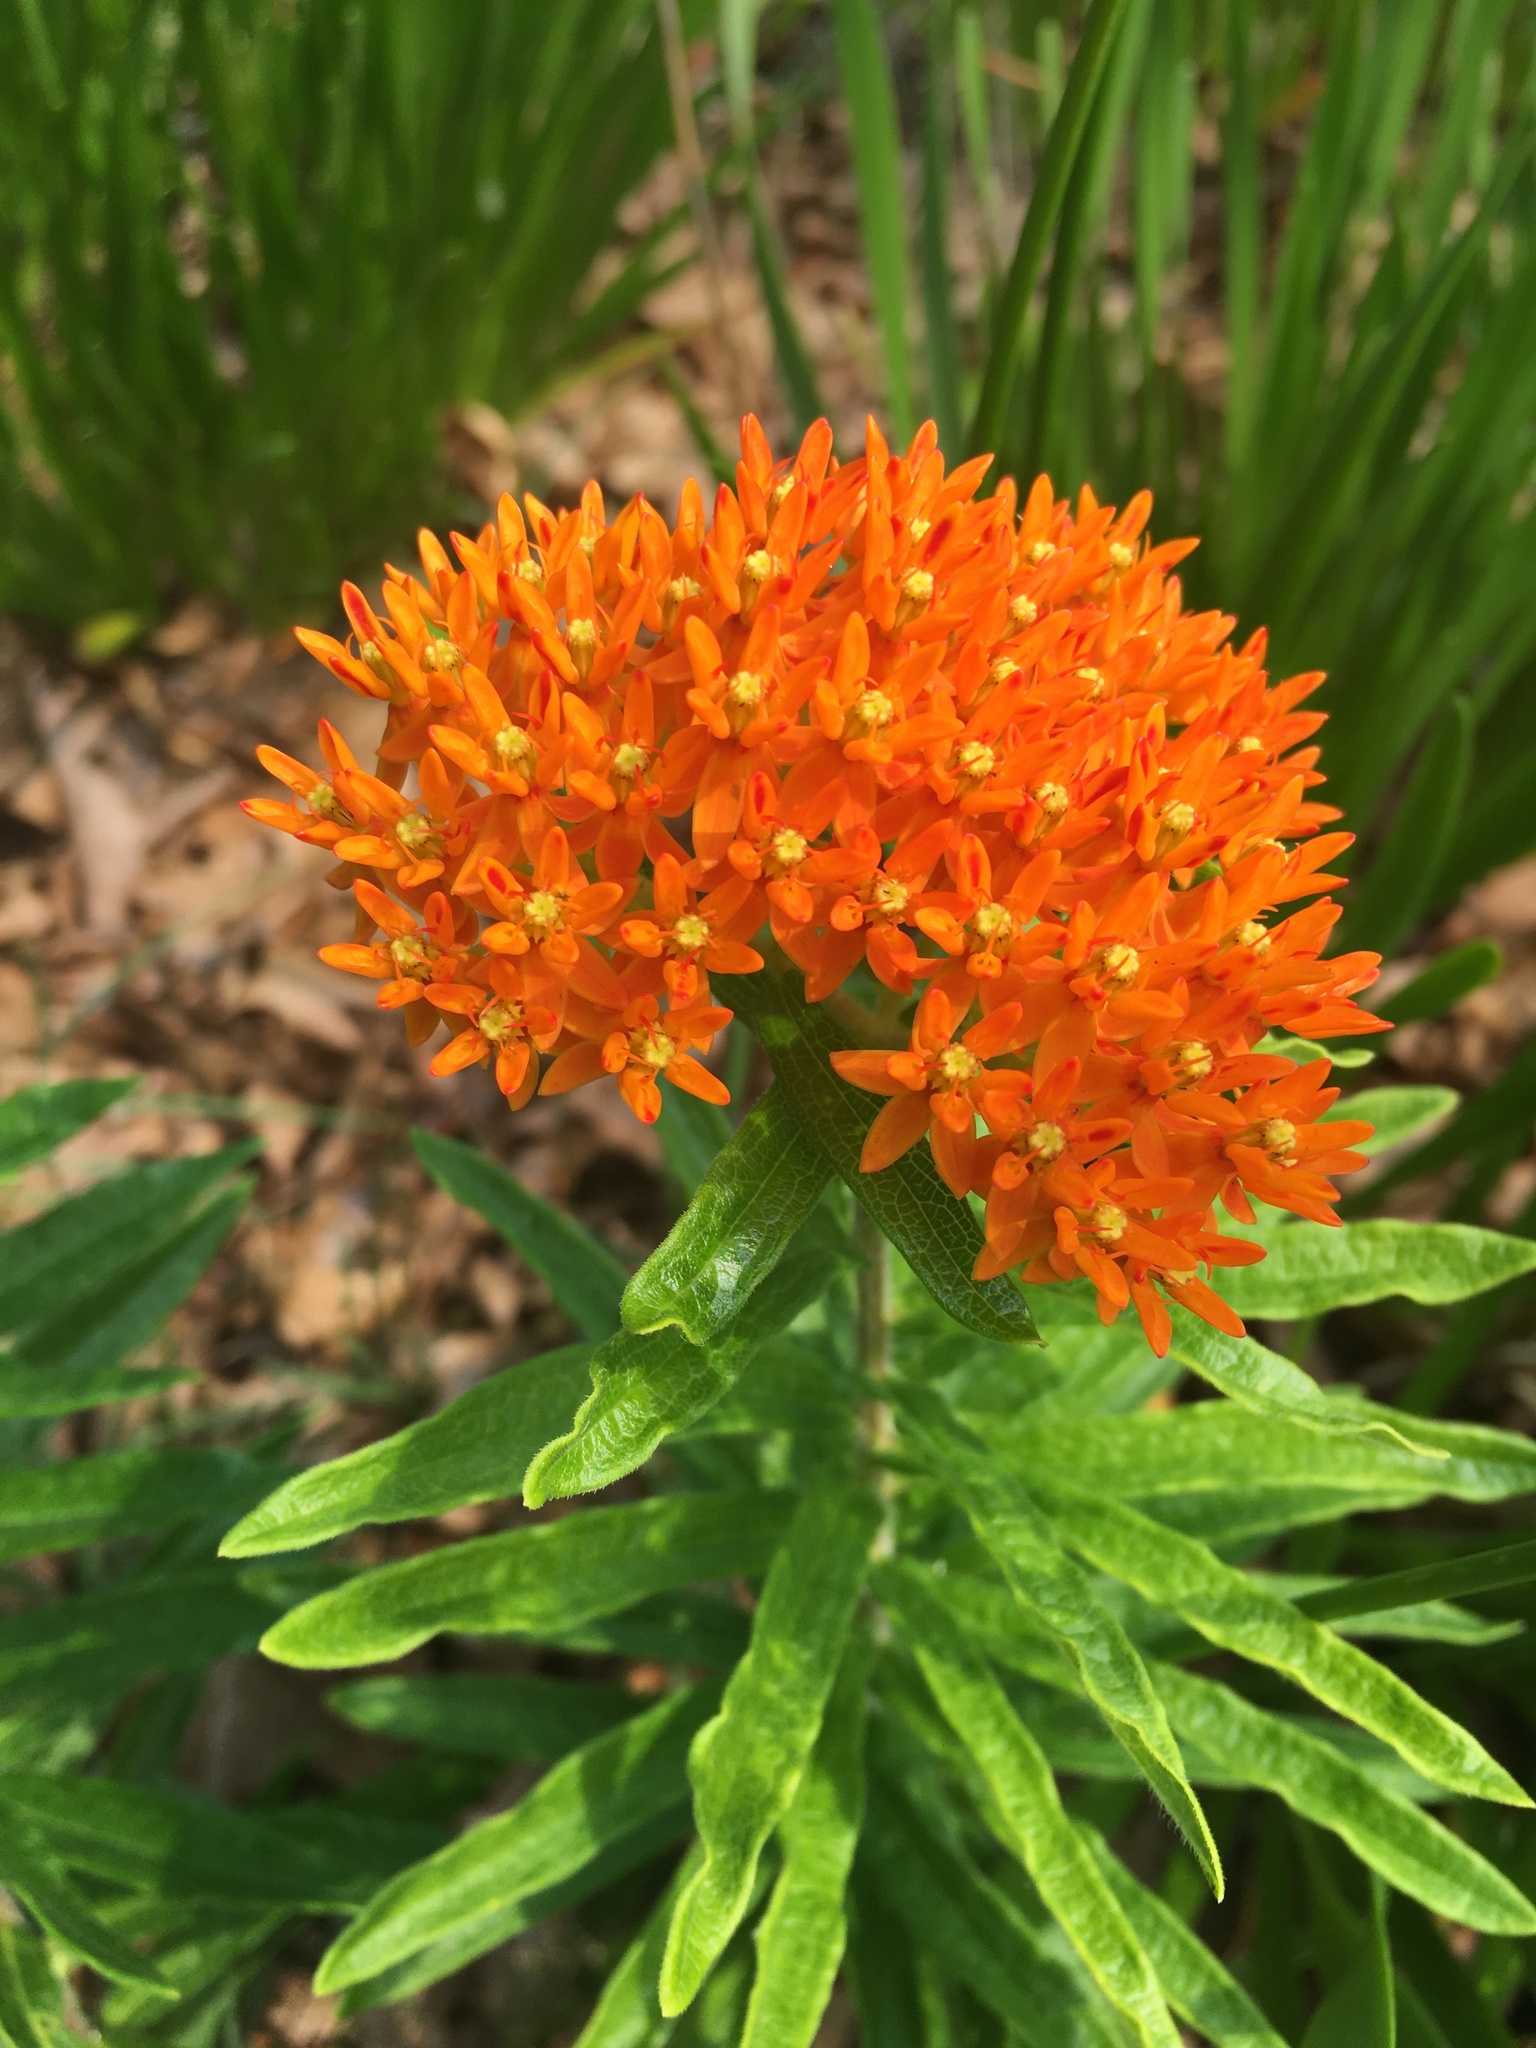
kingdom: Plantae
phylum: Tracheophyta
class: Magnoliopsida
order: Gentianales
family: Apocynaceae
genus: Asclepias
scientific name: Asclepias tuberosa
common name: Butterfly milkweed
